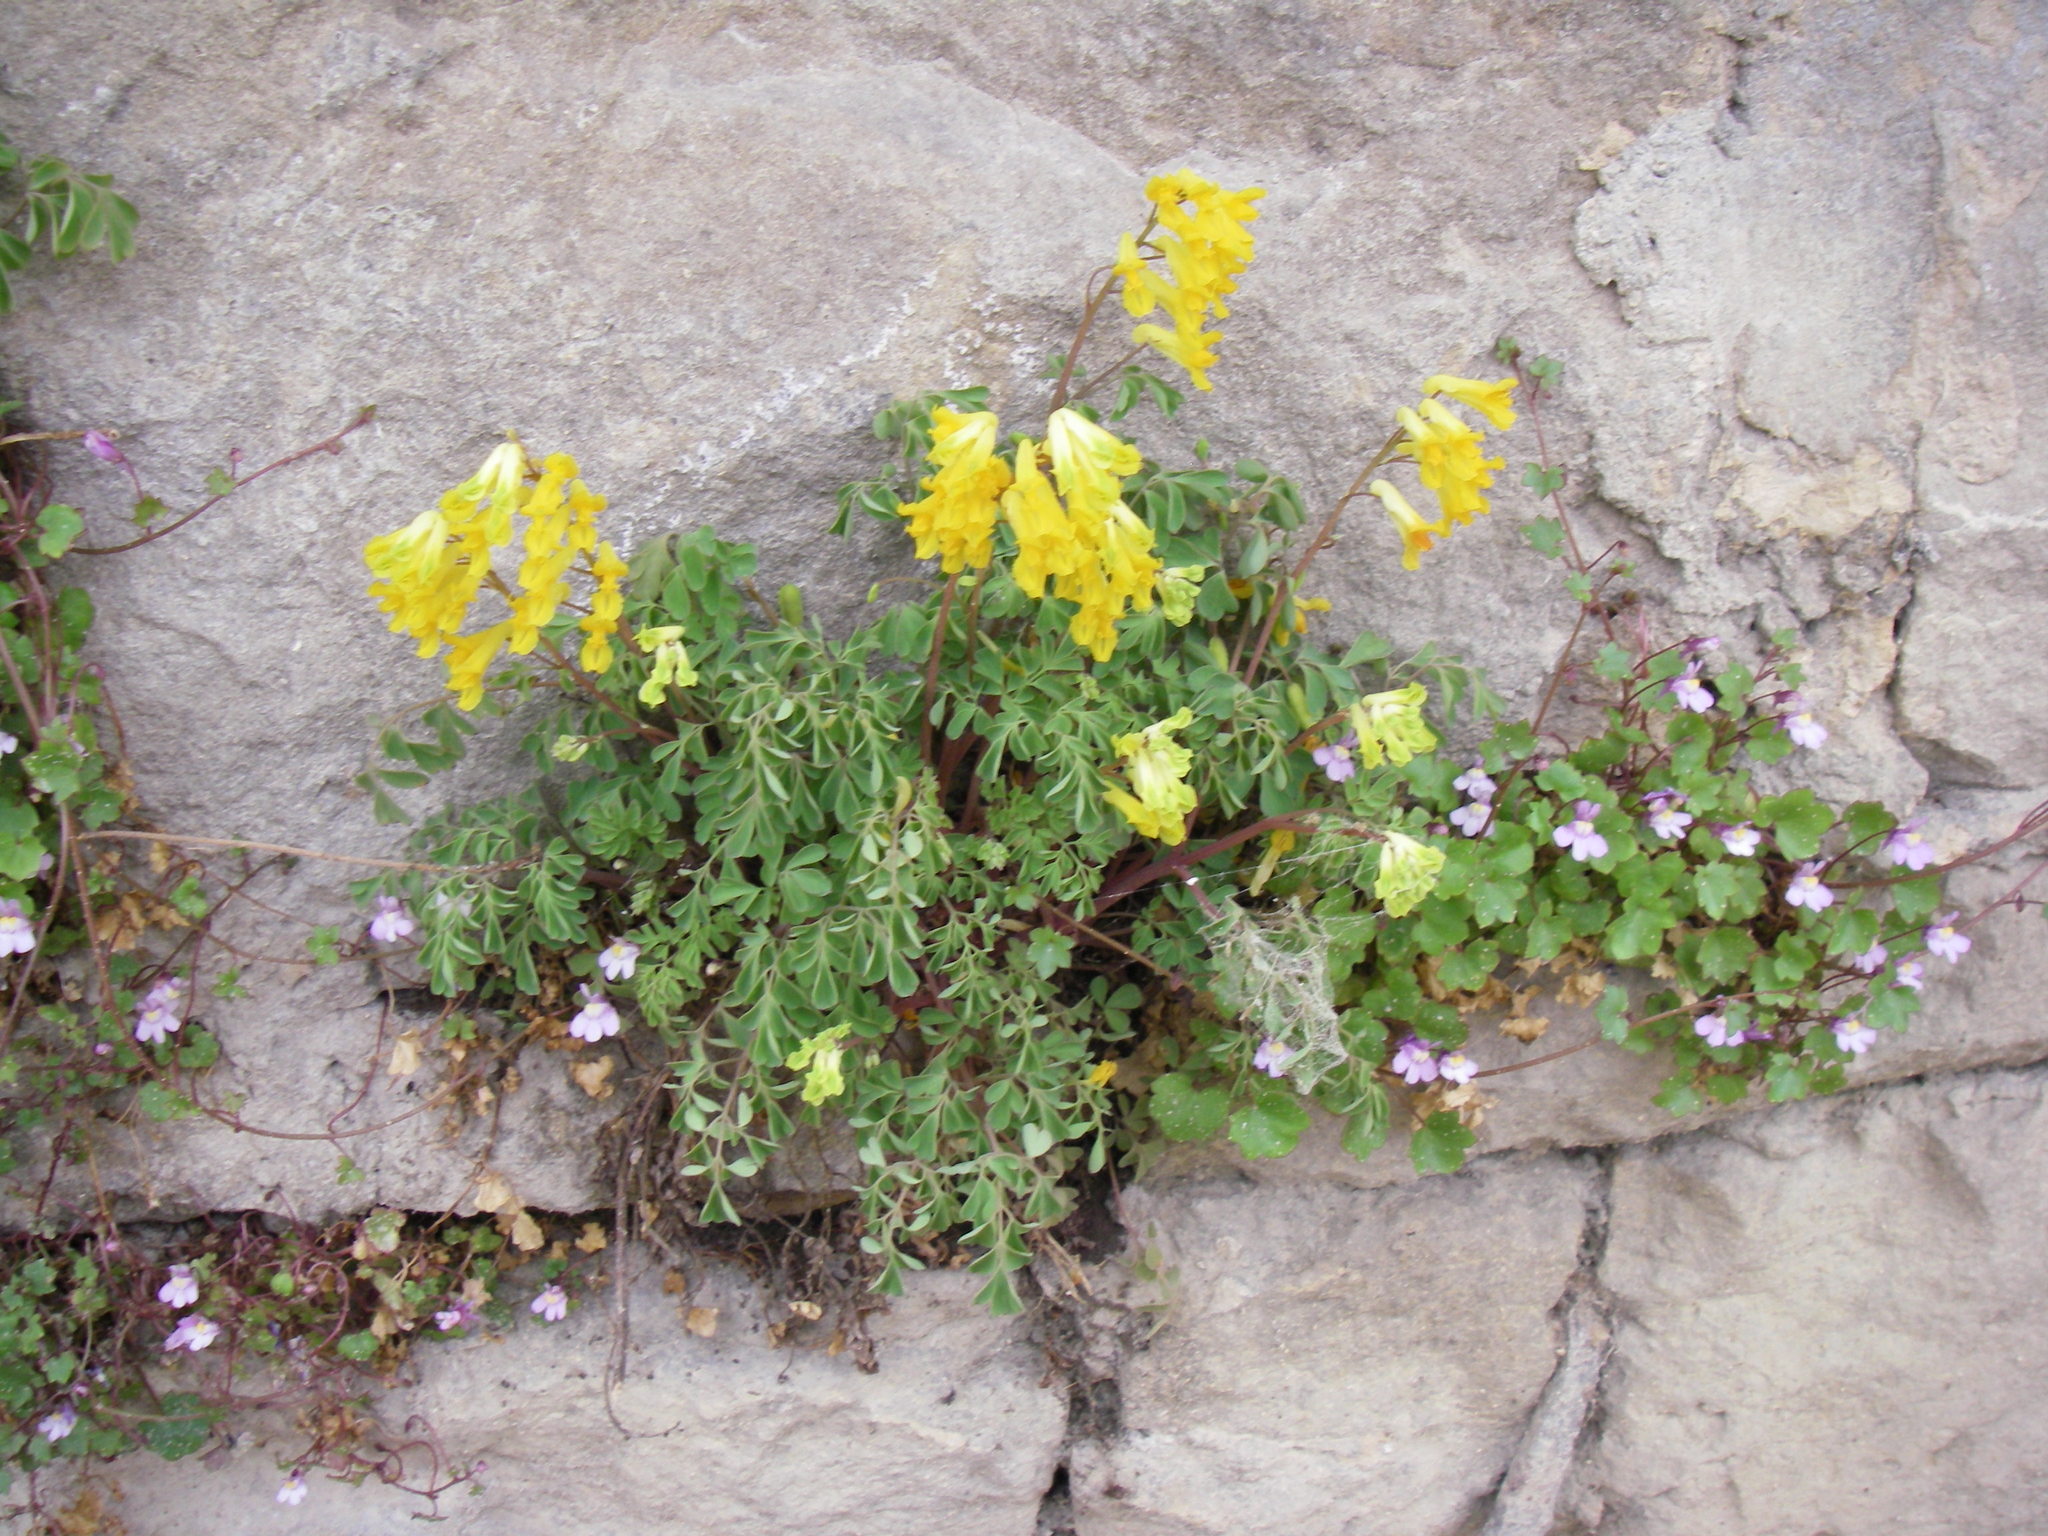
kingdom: Plantae
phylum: Tracheophyta
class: Magnoliopsida
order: Ranunculales
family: Papaveraceae
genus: Pseudofumaria
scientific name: Pseudofumaria lutea
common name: Yellow corydalis
